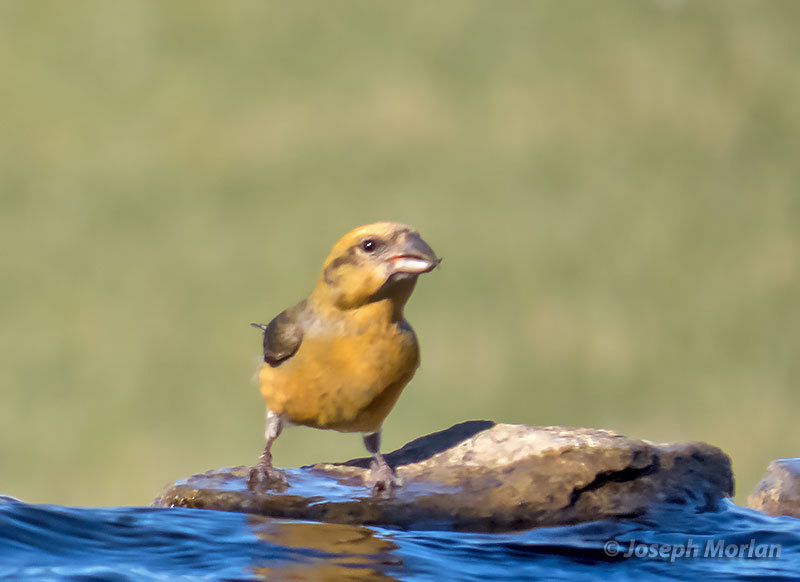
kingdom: Animalia
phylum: Chordata
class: Aves
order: Passeriformes
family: Fringillidae
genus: Loxia
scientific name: Loxia curvirostra
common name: Red crossbill
